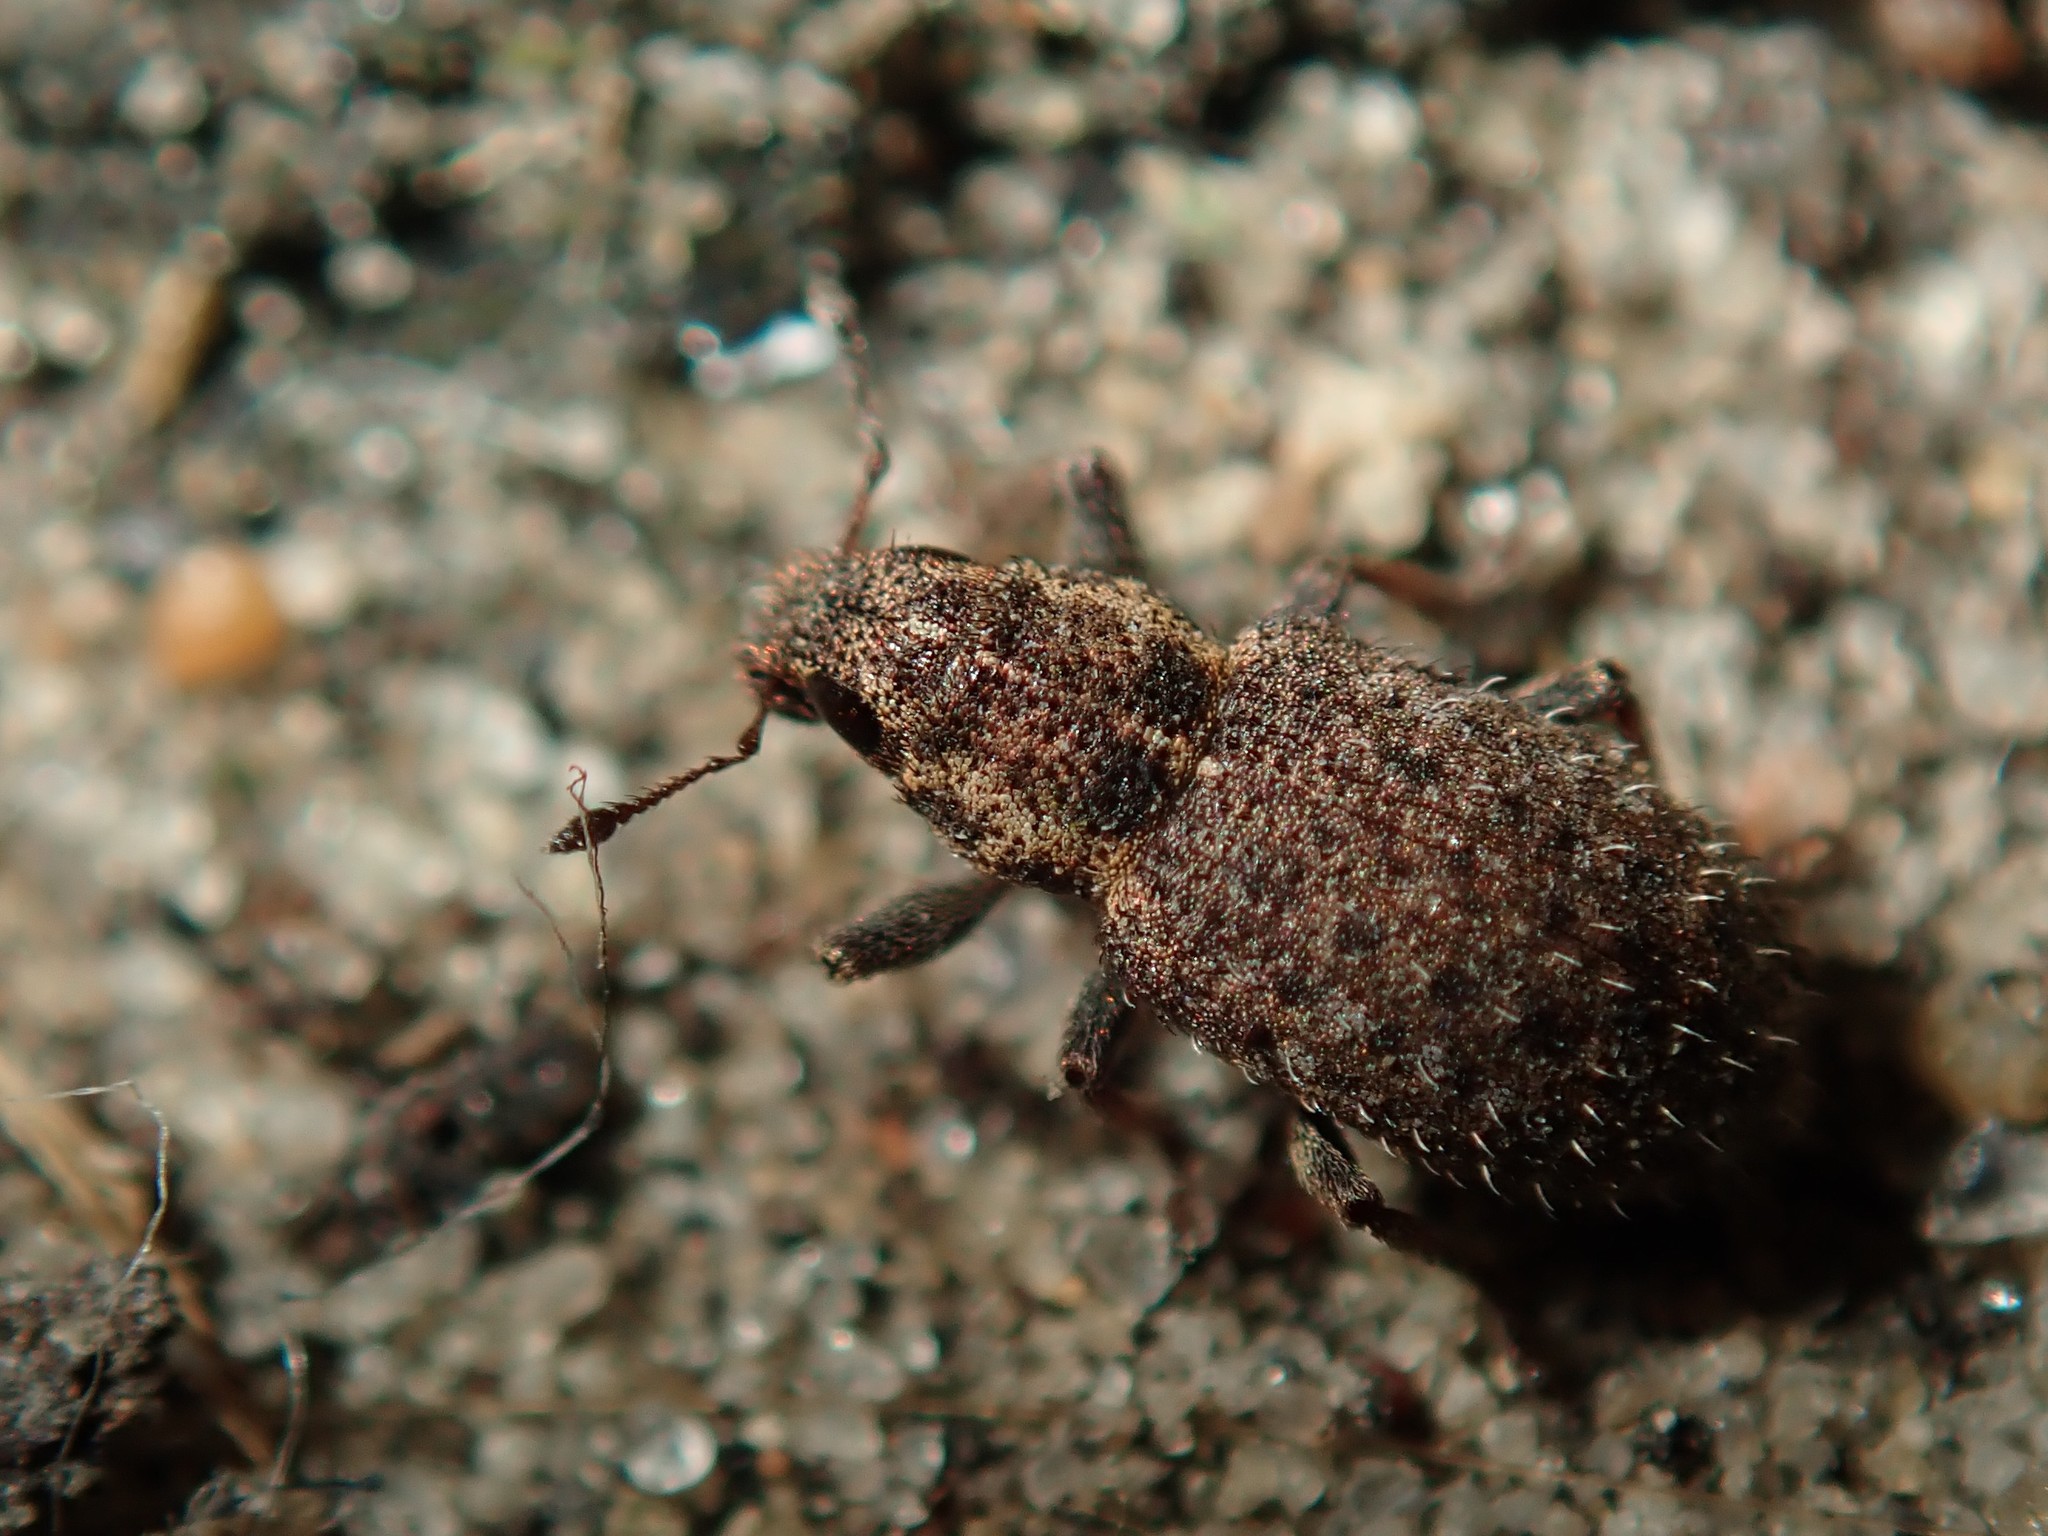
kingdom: Animalia
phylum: Arthropoda
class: Insecta
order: Coleoptera
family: Curculionidae
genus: Sitona
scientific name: Sitona hispidulus
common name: Clover weevil
